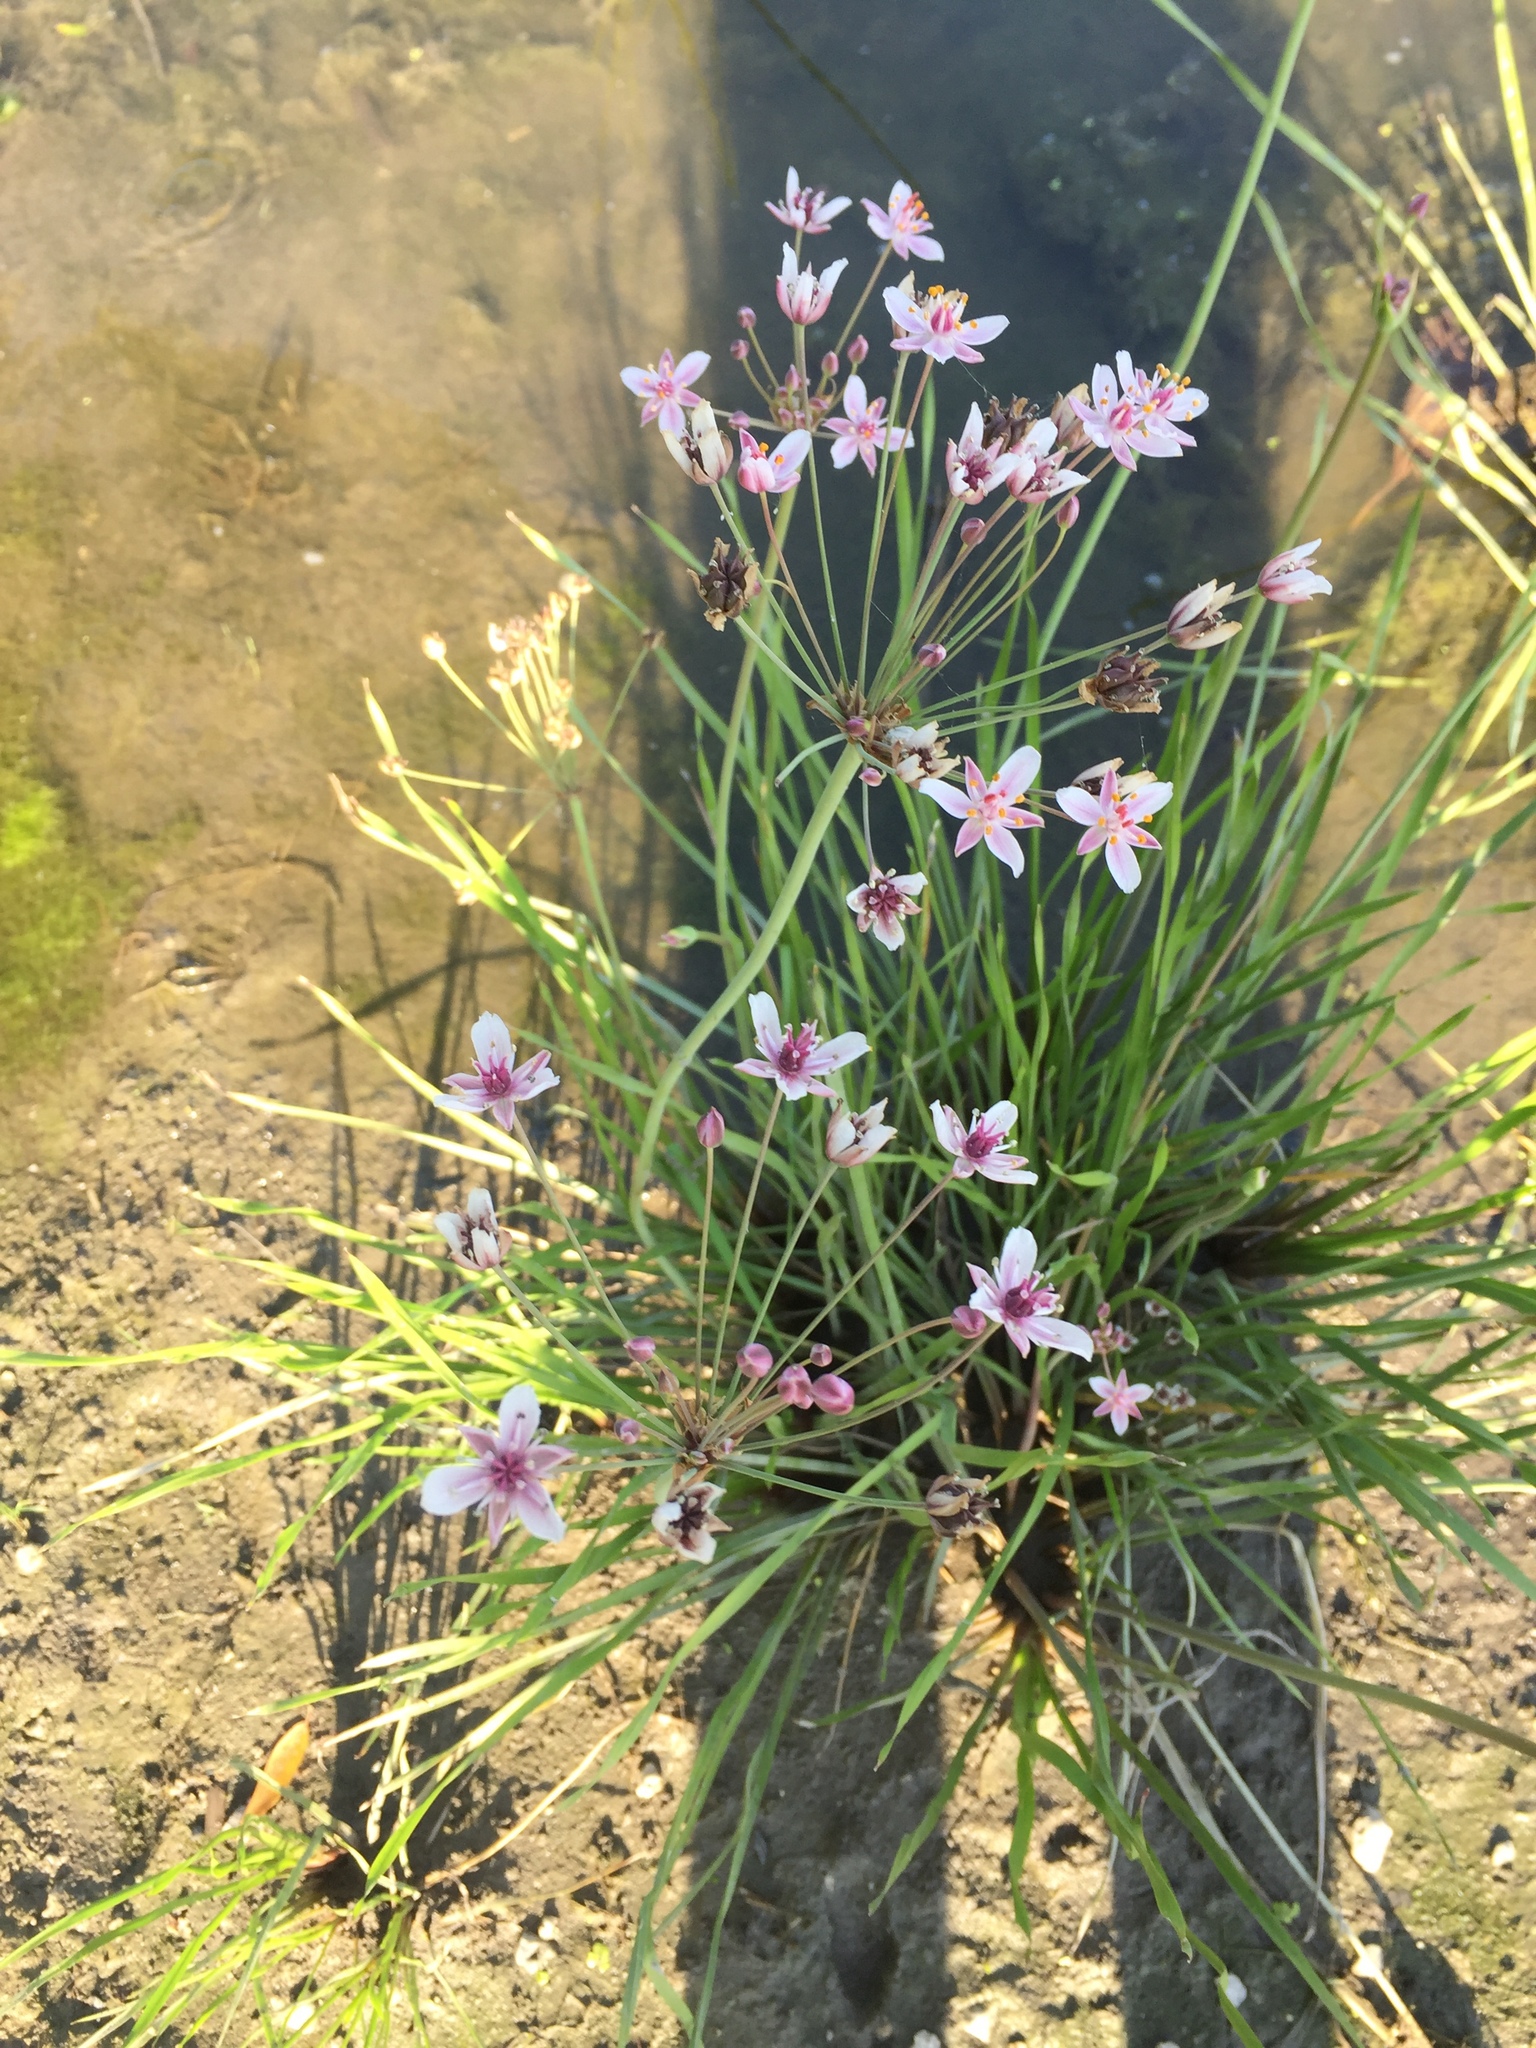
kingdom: Plantae
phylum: Tracheophyta
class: Liliopsida
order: Alismatales
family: Butomaceae
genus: Butomus
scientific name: Butomus umbellatus
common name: Flowering-rush
